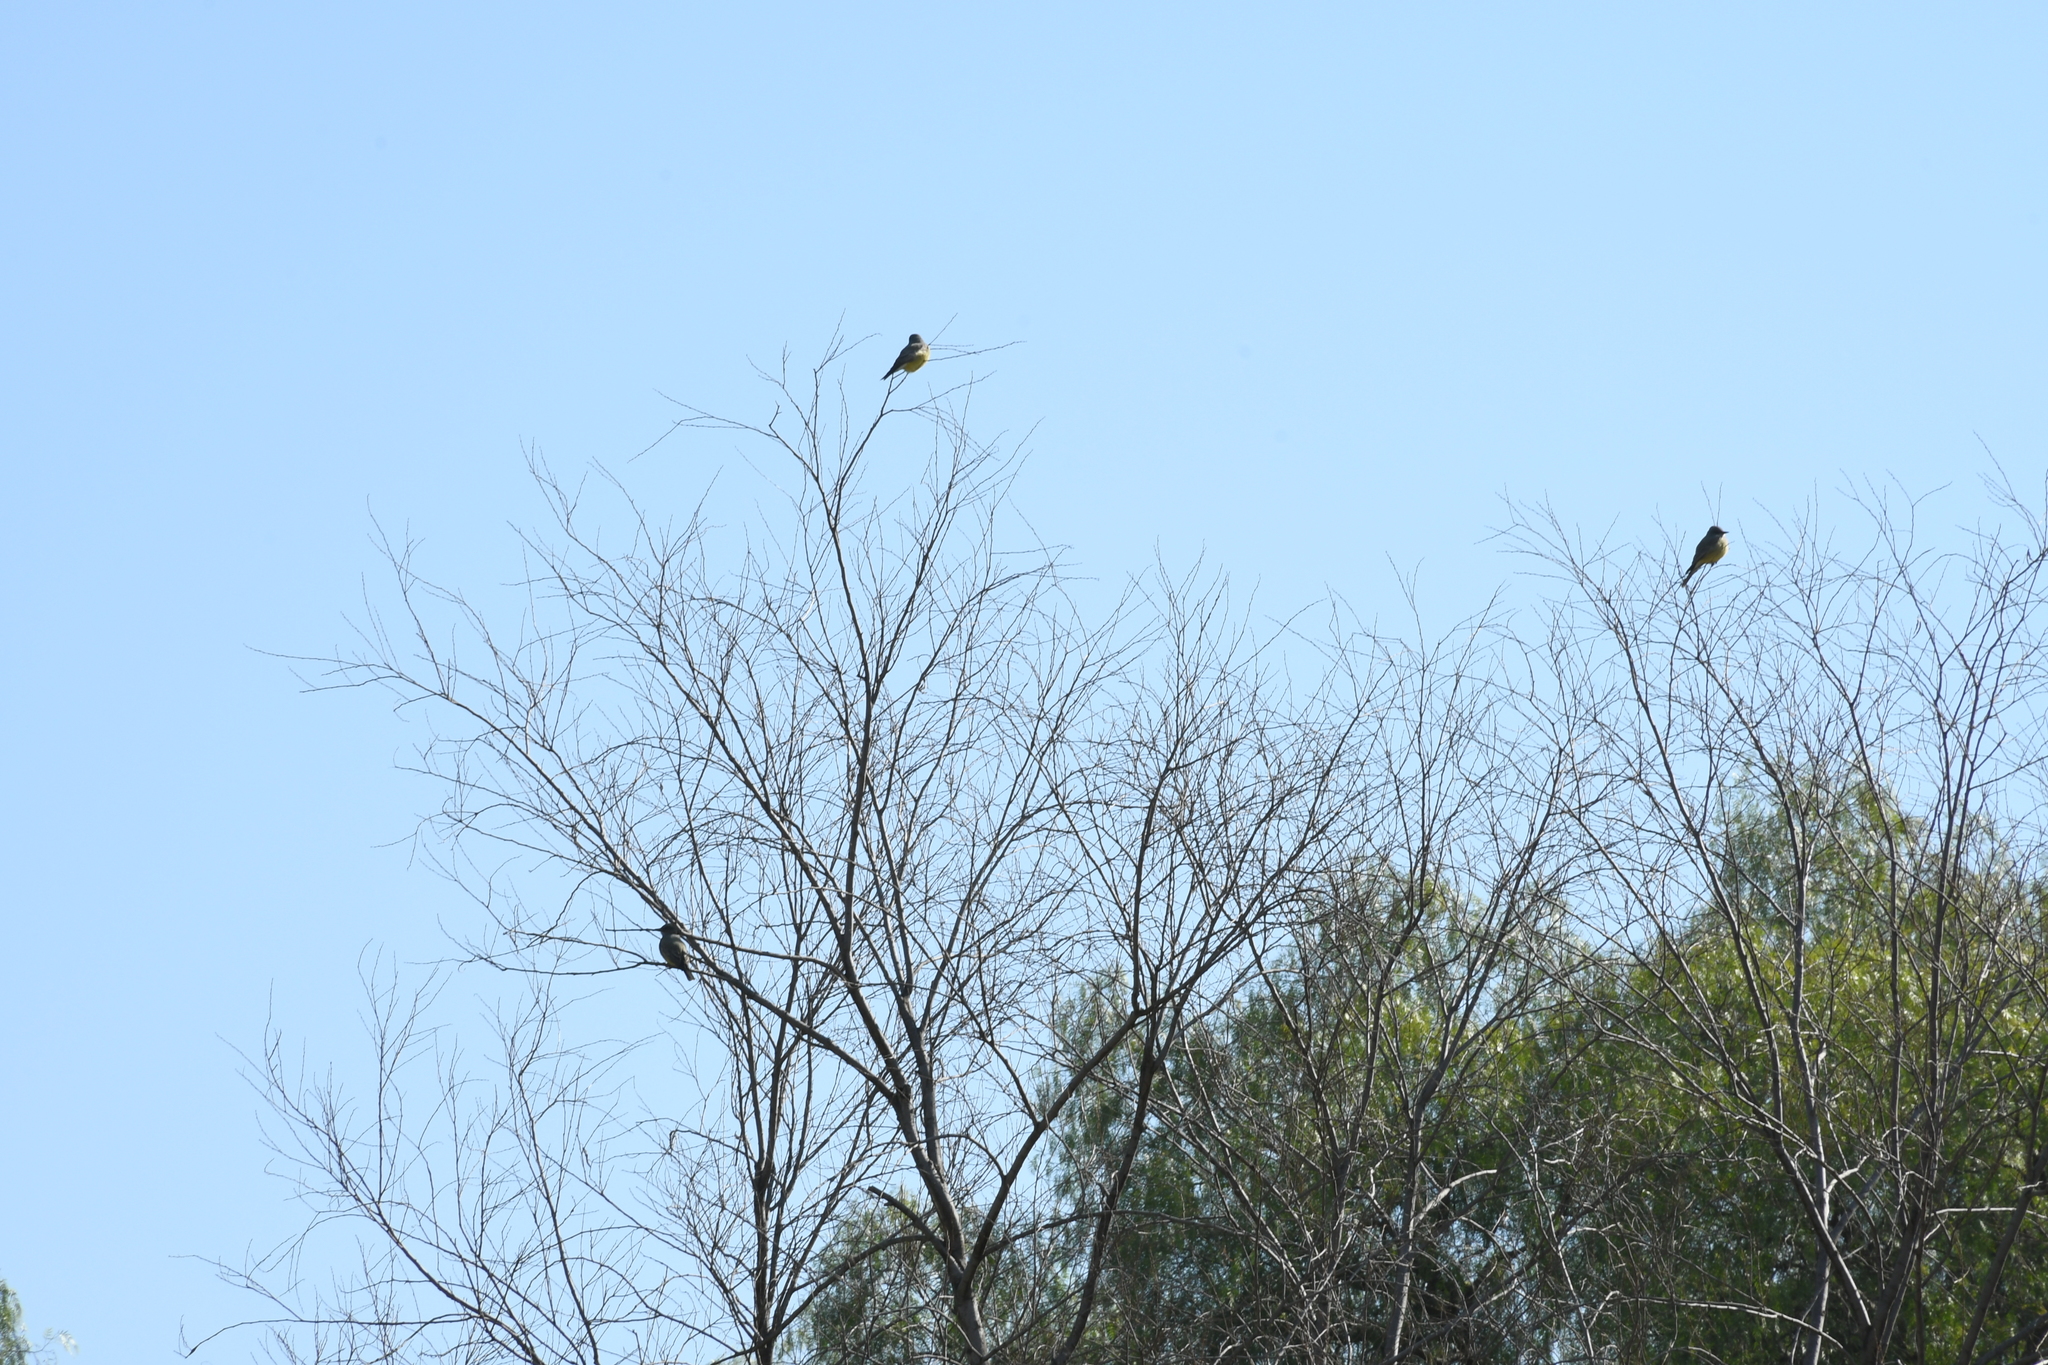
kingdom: Animalia
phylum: Chordata
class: Aves
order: Passeriformes
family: Tyrannidae
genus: Tyrannus
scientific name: Tyrannus vociferans
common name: Cassin's kingbird
